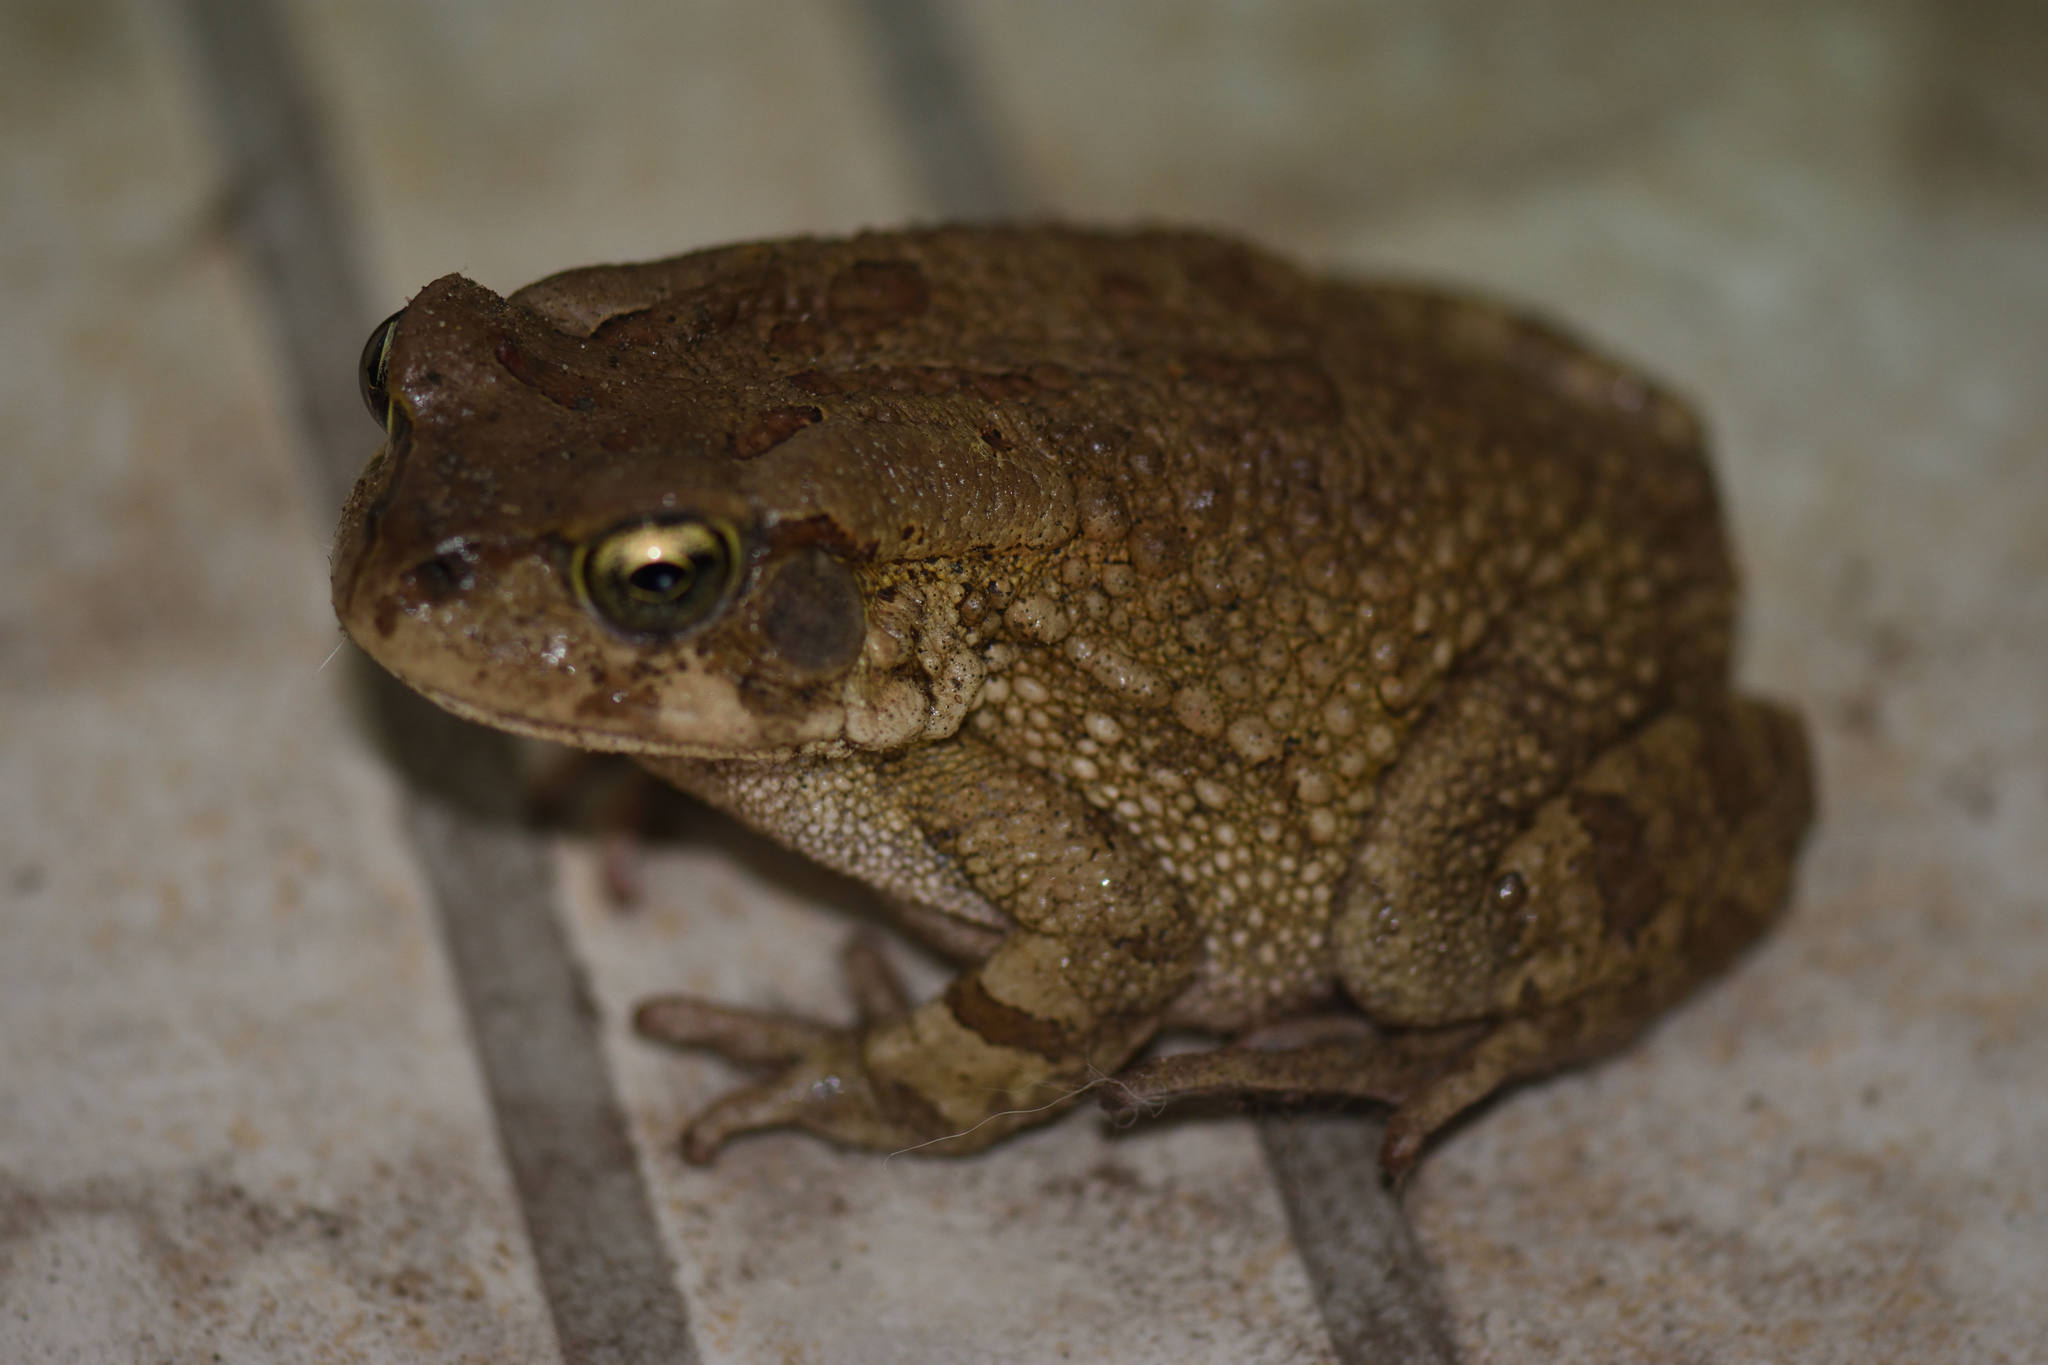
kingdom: Animalia
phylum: Chordata
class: Amphibia
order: Anura
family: Bufonidae
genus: Sclerophrys
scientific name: Sclerophrys capensis
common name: Ranger’s toad
